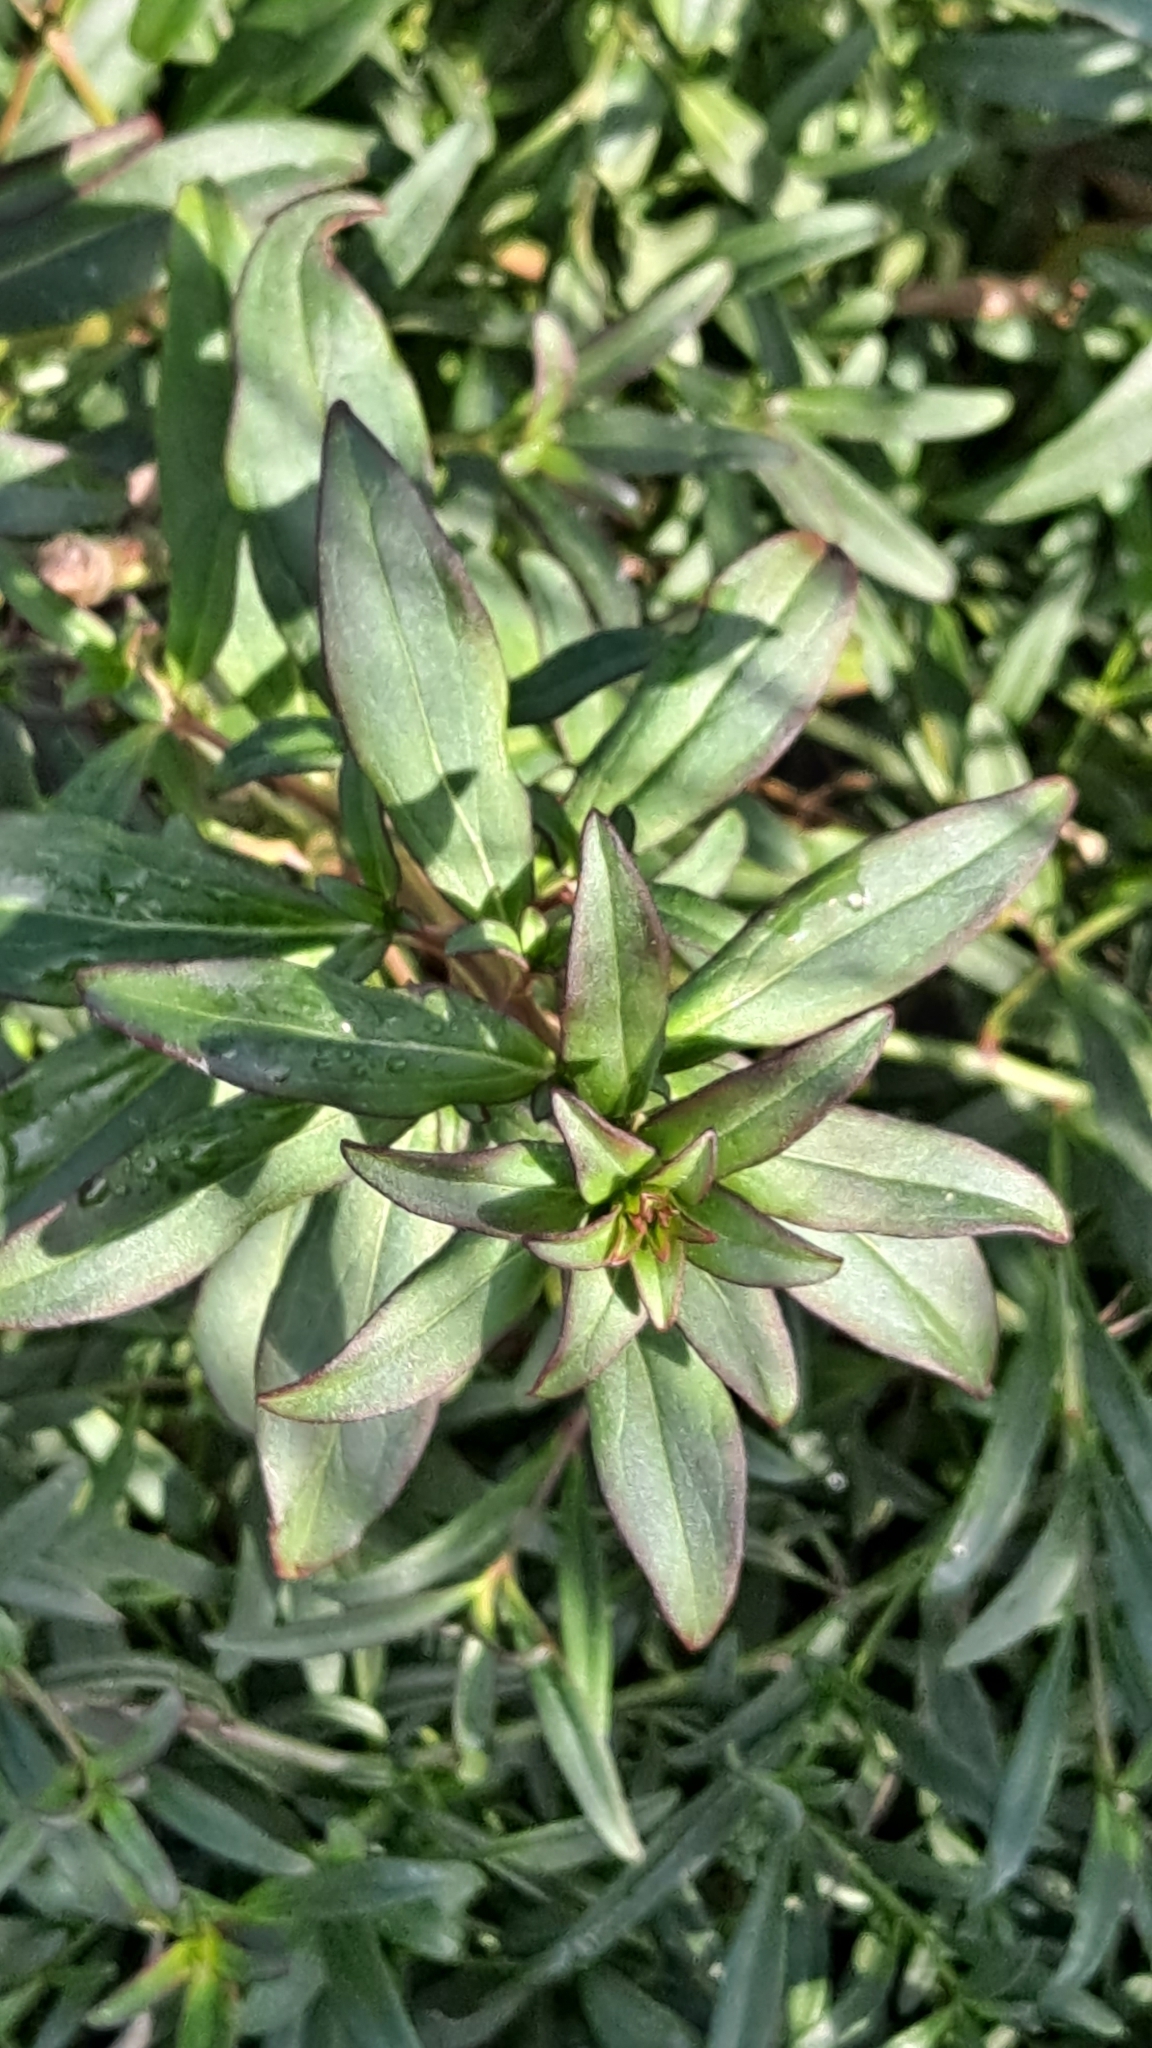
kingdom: Plantae
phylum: Tracheophyta
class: Magnoliopsida
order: Lamiales
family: Plantaginaceae
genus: Antirrhinum
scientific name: Antirrhinum majus
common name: Snapdragon
